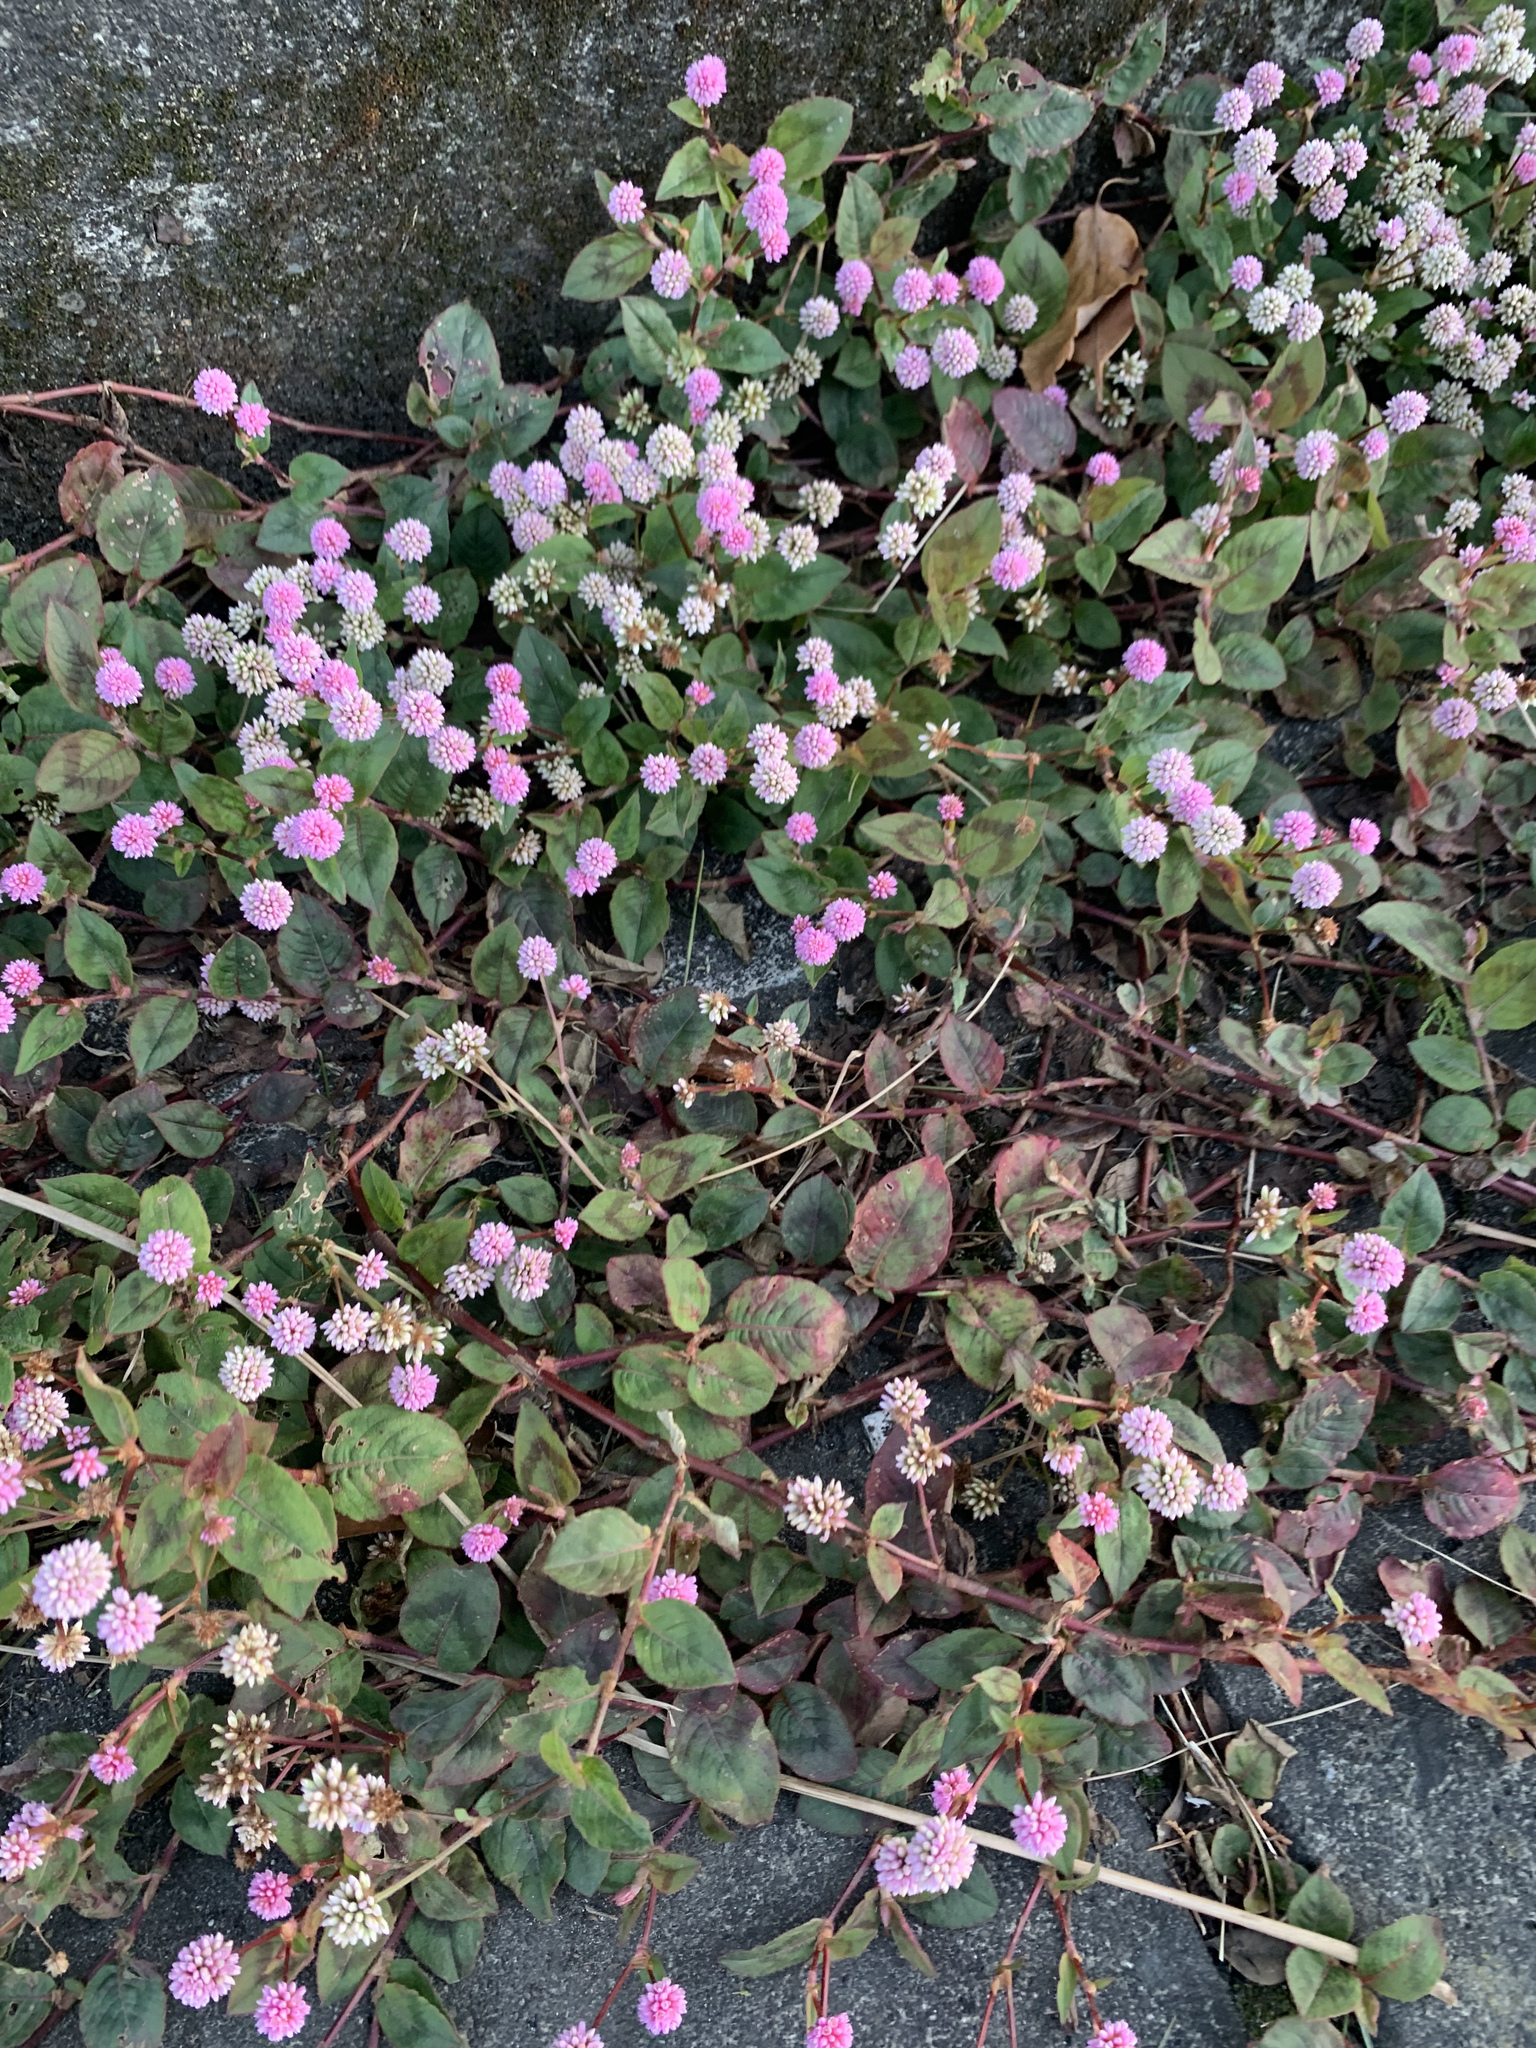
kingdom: Plantae
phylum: Tracheophyta
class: Magnoliopsida
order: Caryophyllales
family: Polygonaceae
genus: Persicaria
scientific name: Persicaria capitata
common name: Pinkhead smartweed
